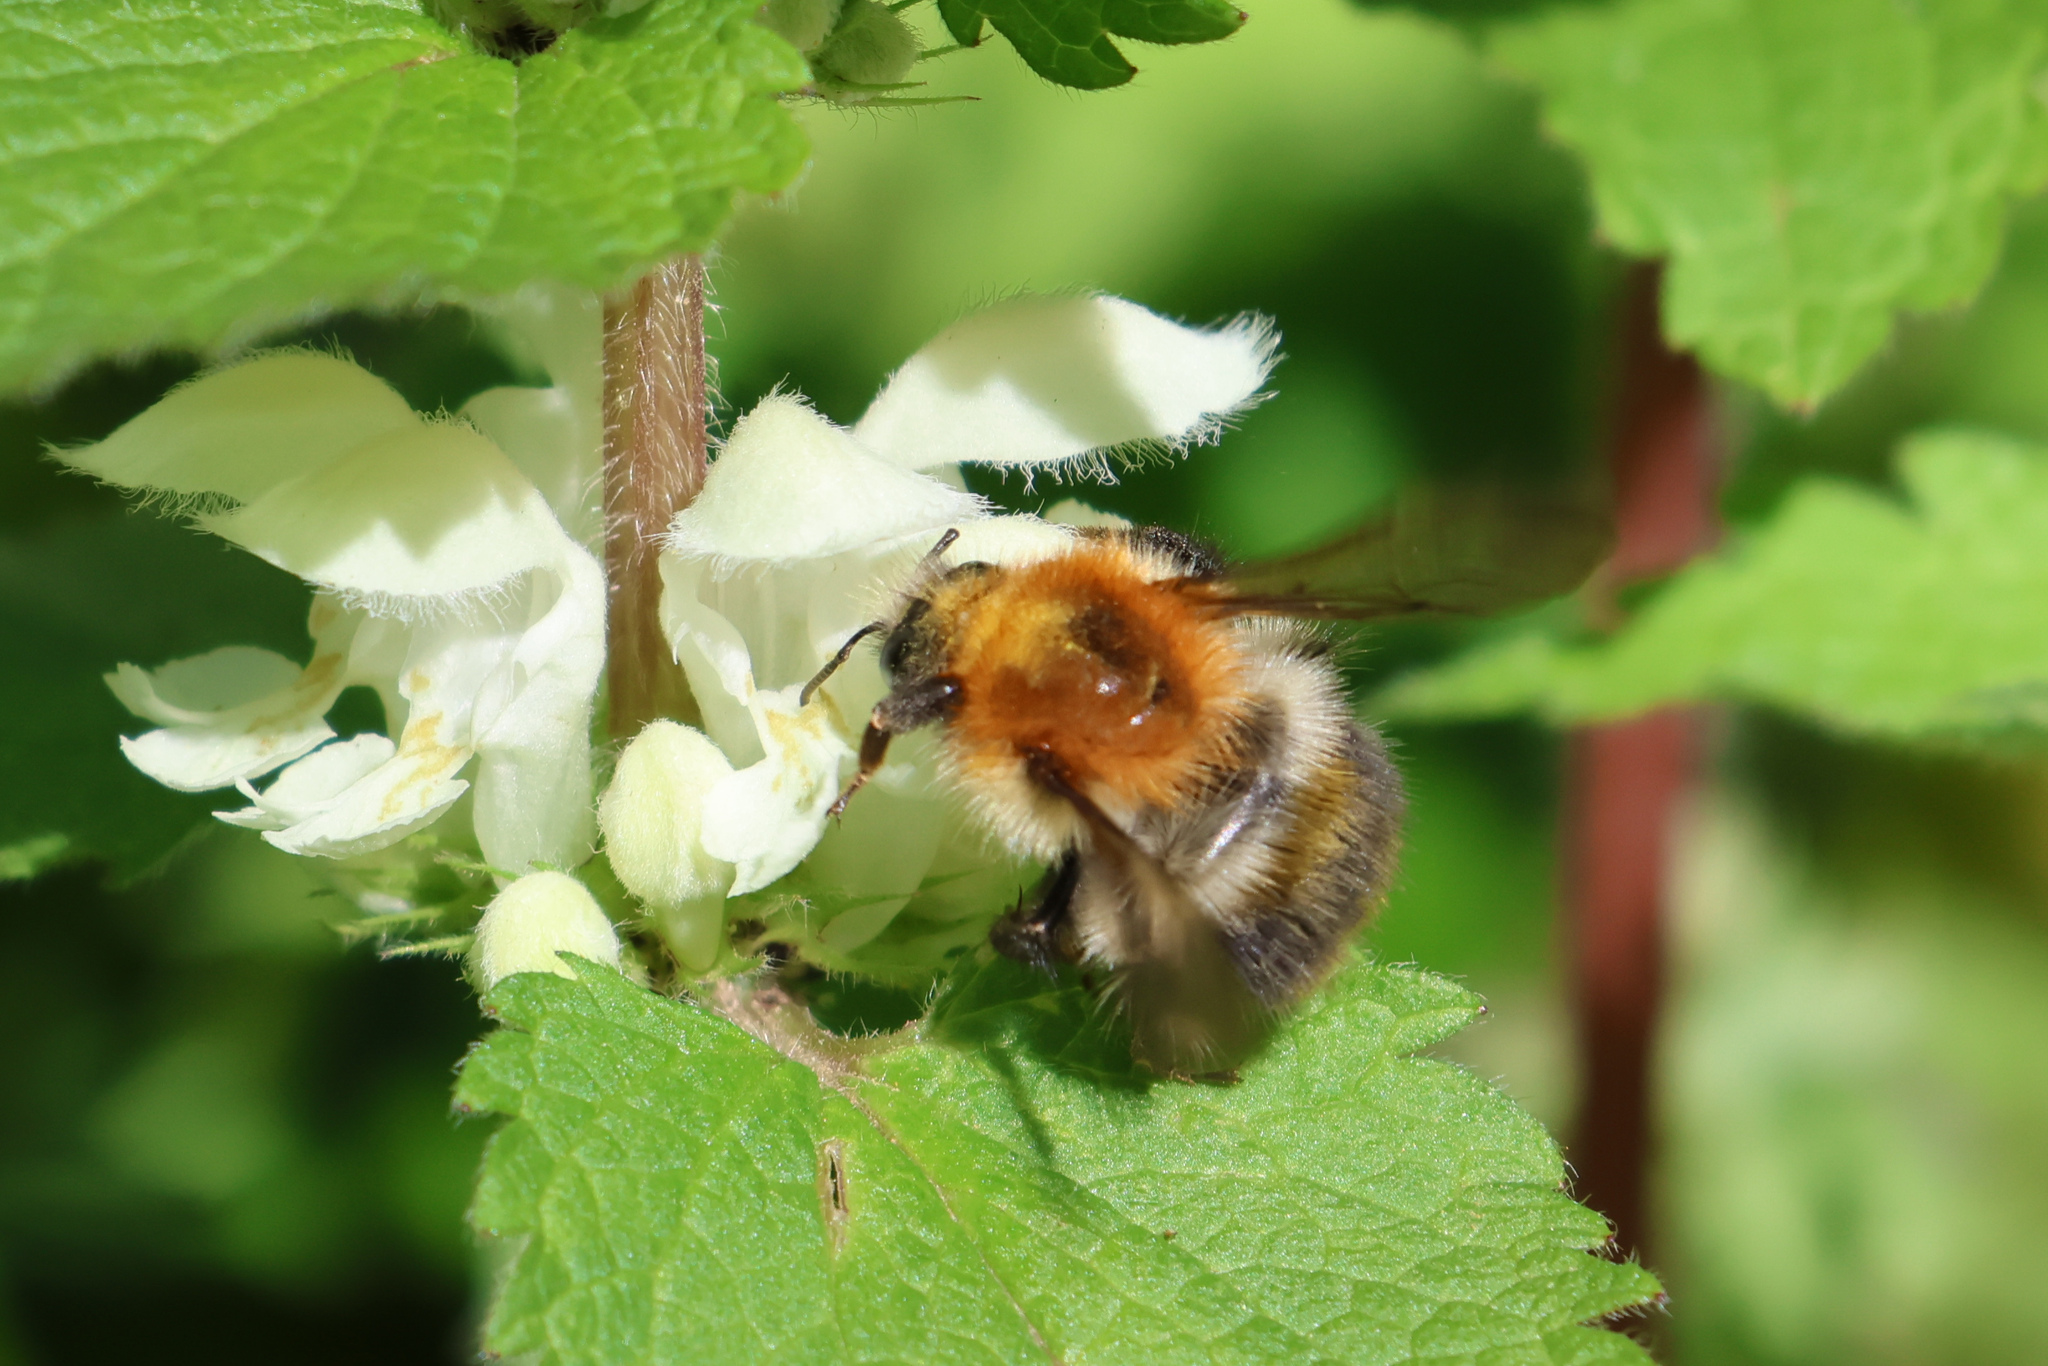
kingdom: Animalia
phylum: Arthropoda
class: Insecta
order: Hymenoptera
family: Apidae
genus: Bombus
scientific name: Bombus pascuorum
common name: Common carder bee
